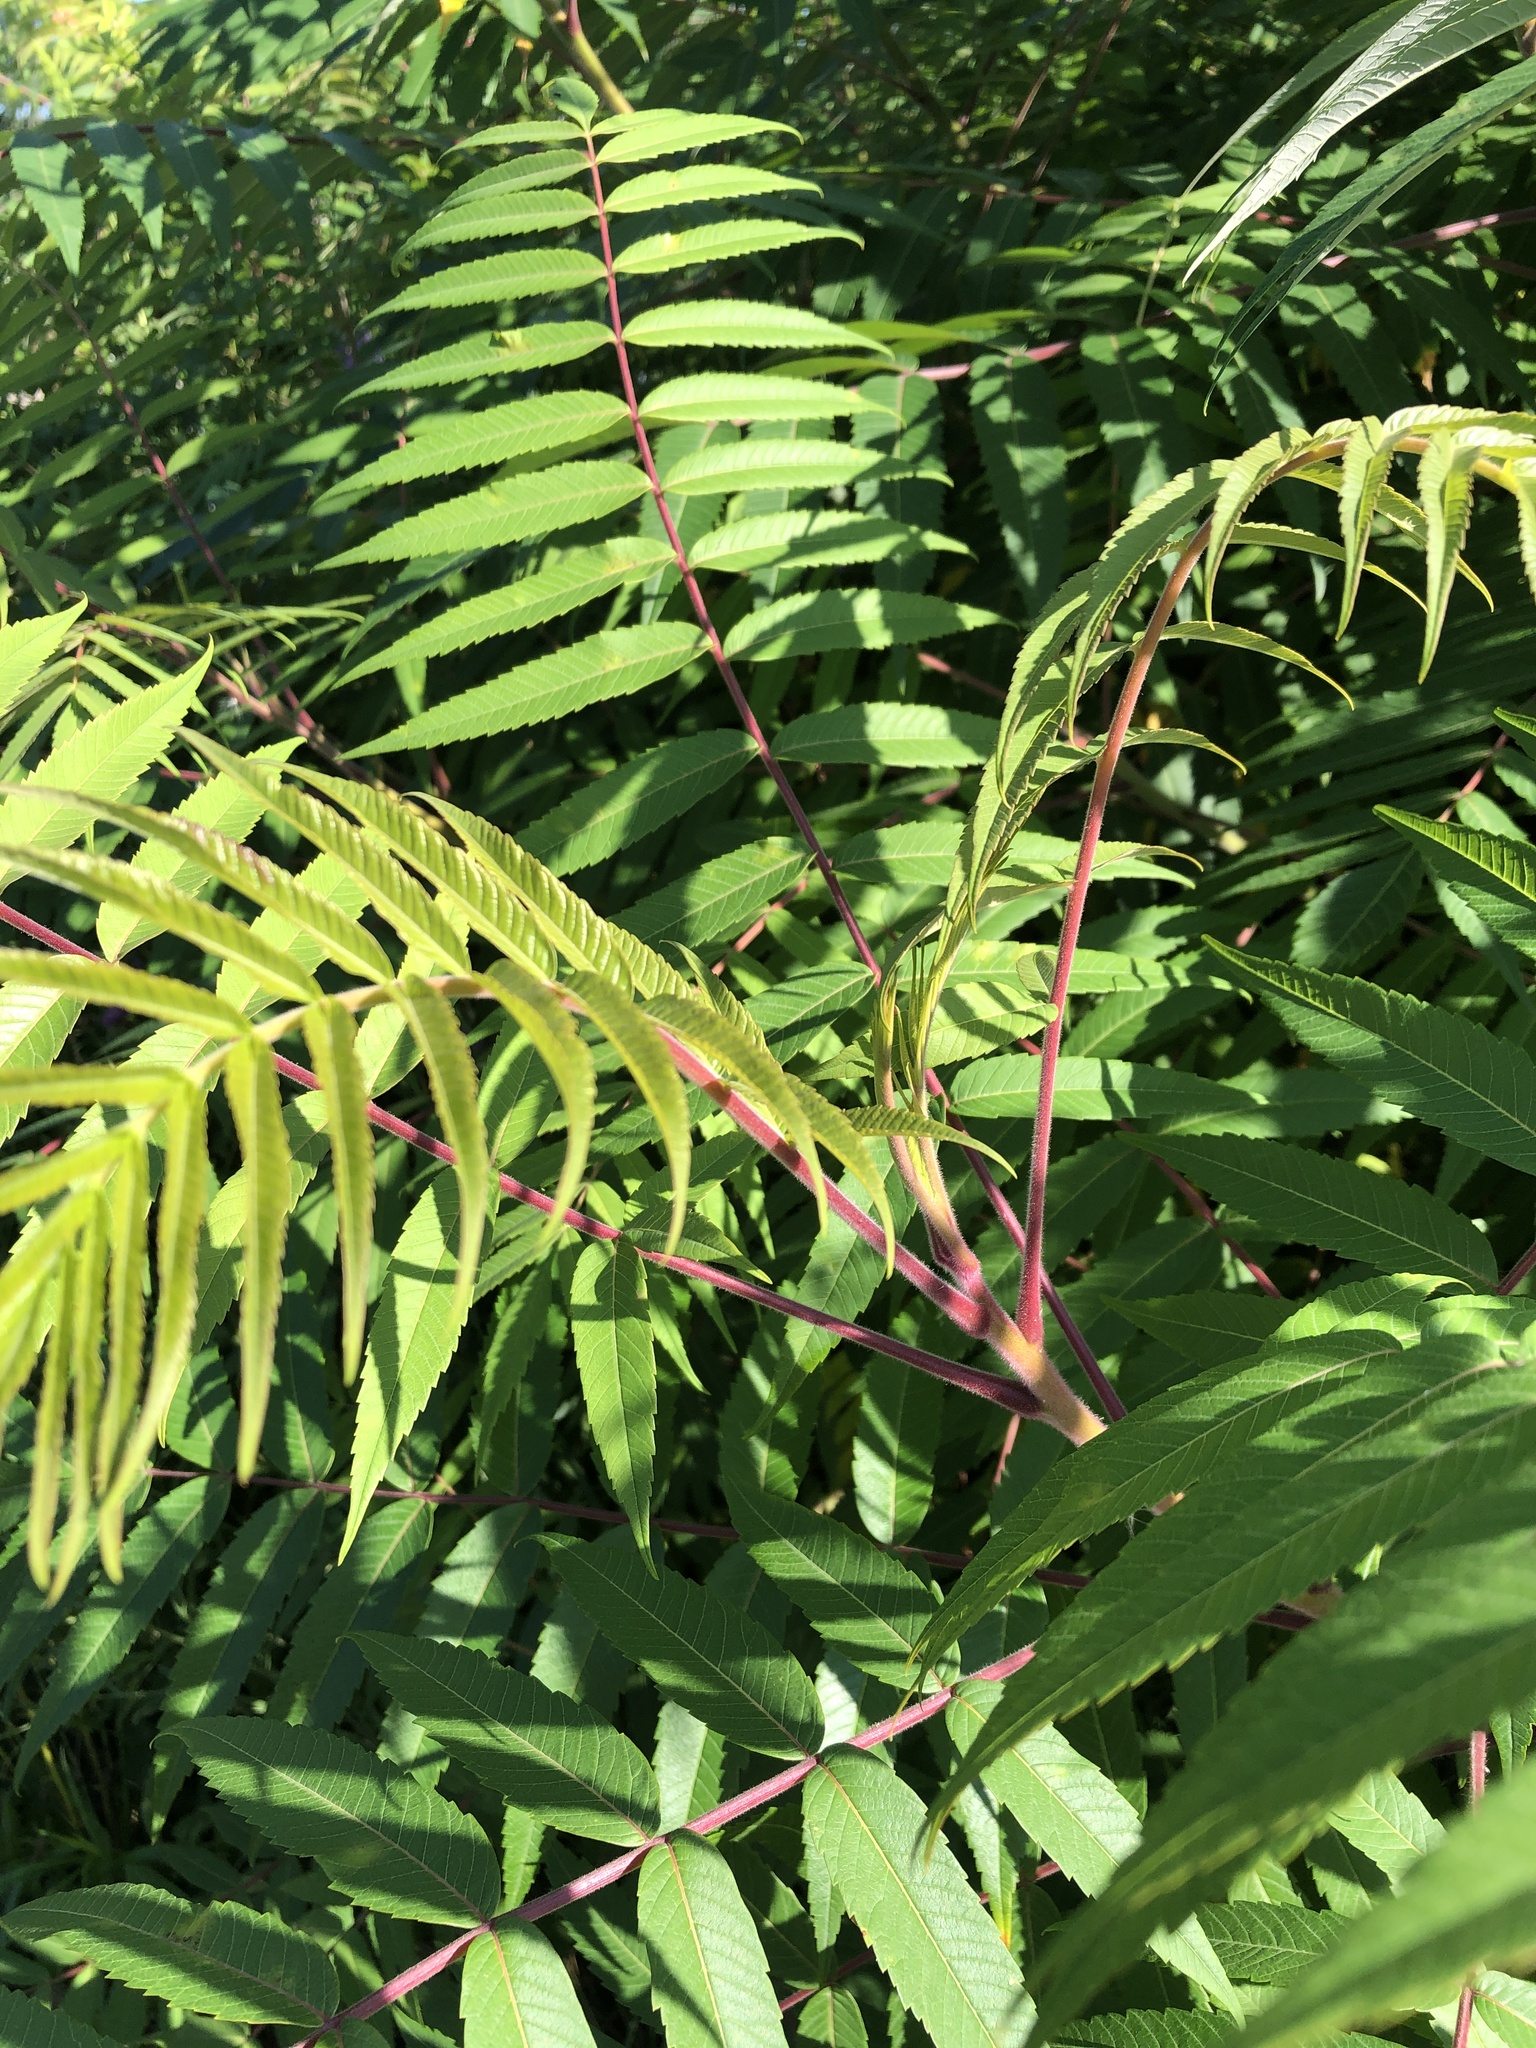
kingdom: Plantae
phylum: Tracheophyta
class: Magnoliopsida
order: Sapindales
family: Anacardiaceae
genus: Rhus
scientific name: Rhus typhina
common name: Staghorn sumac
